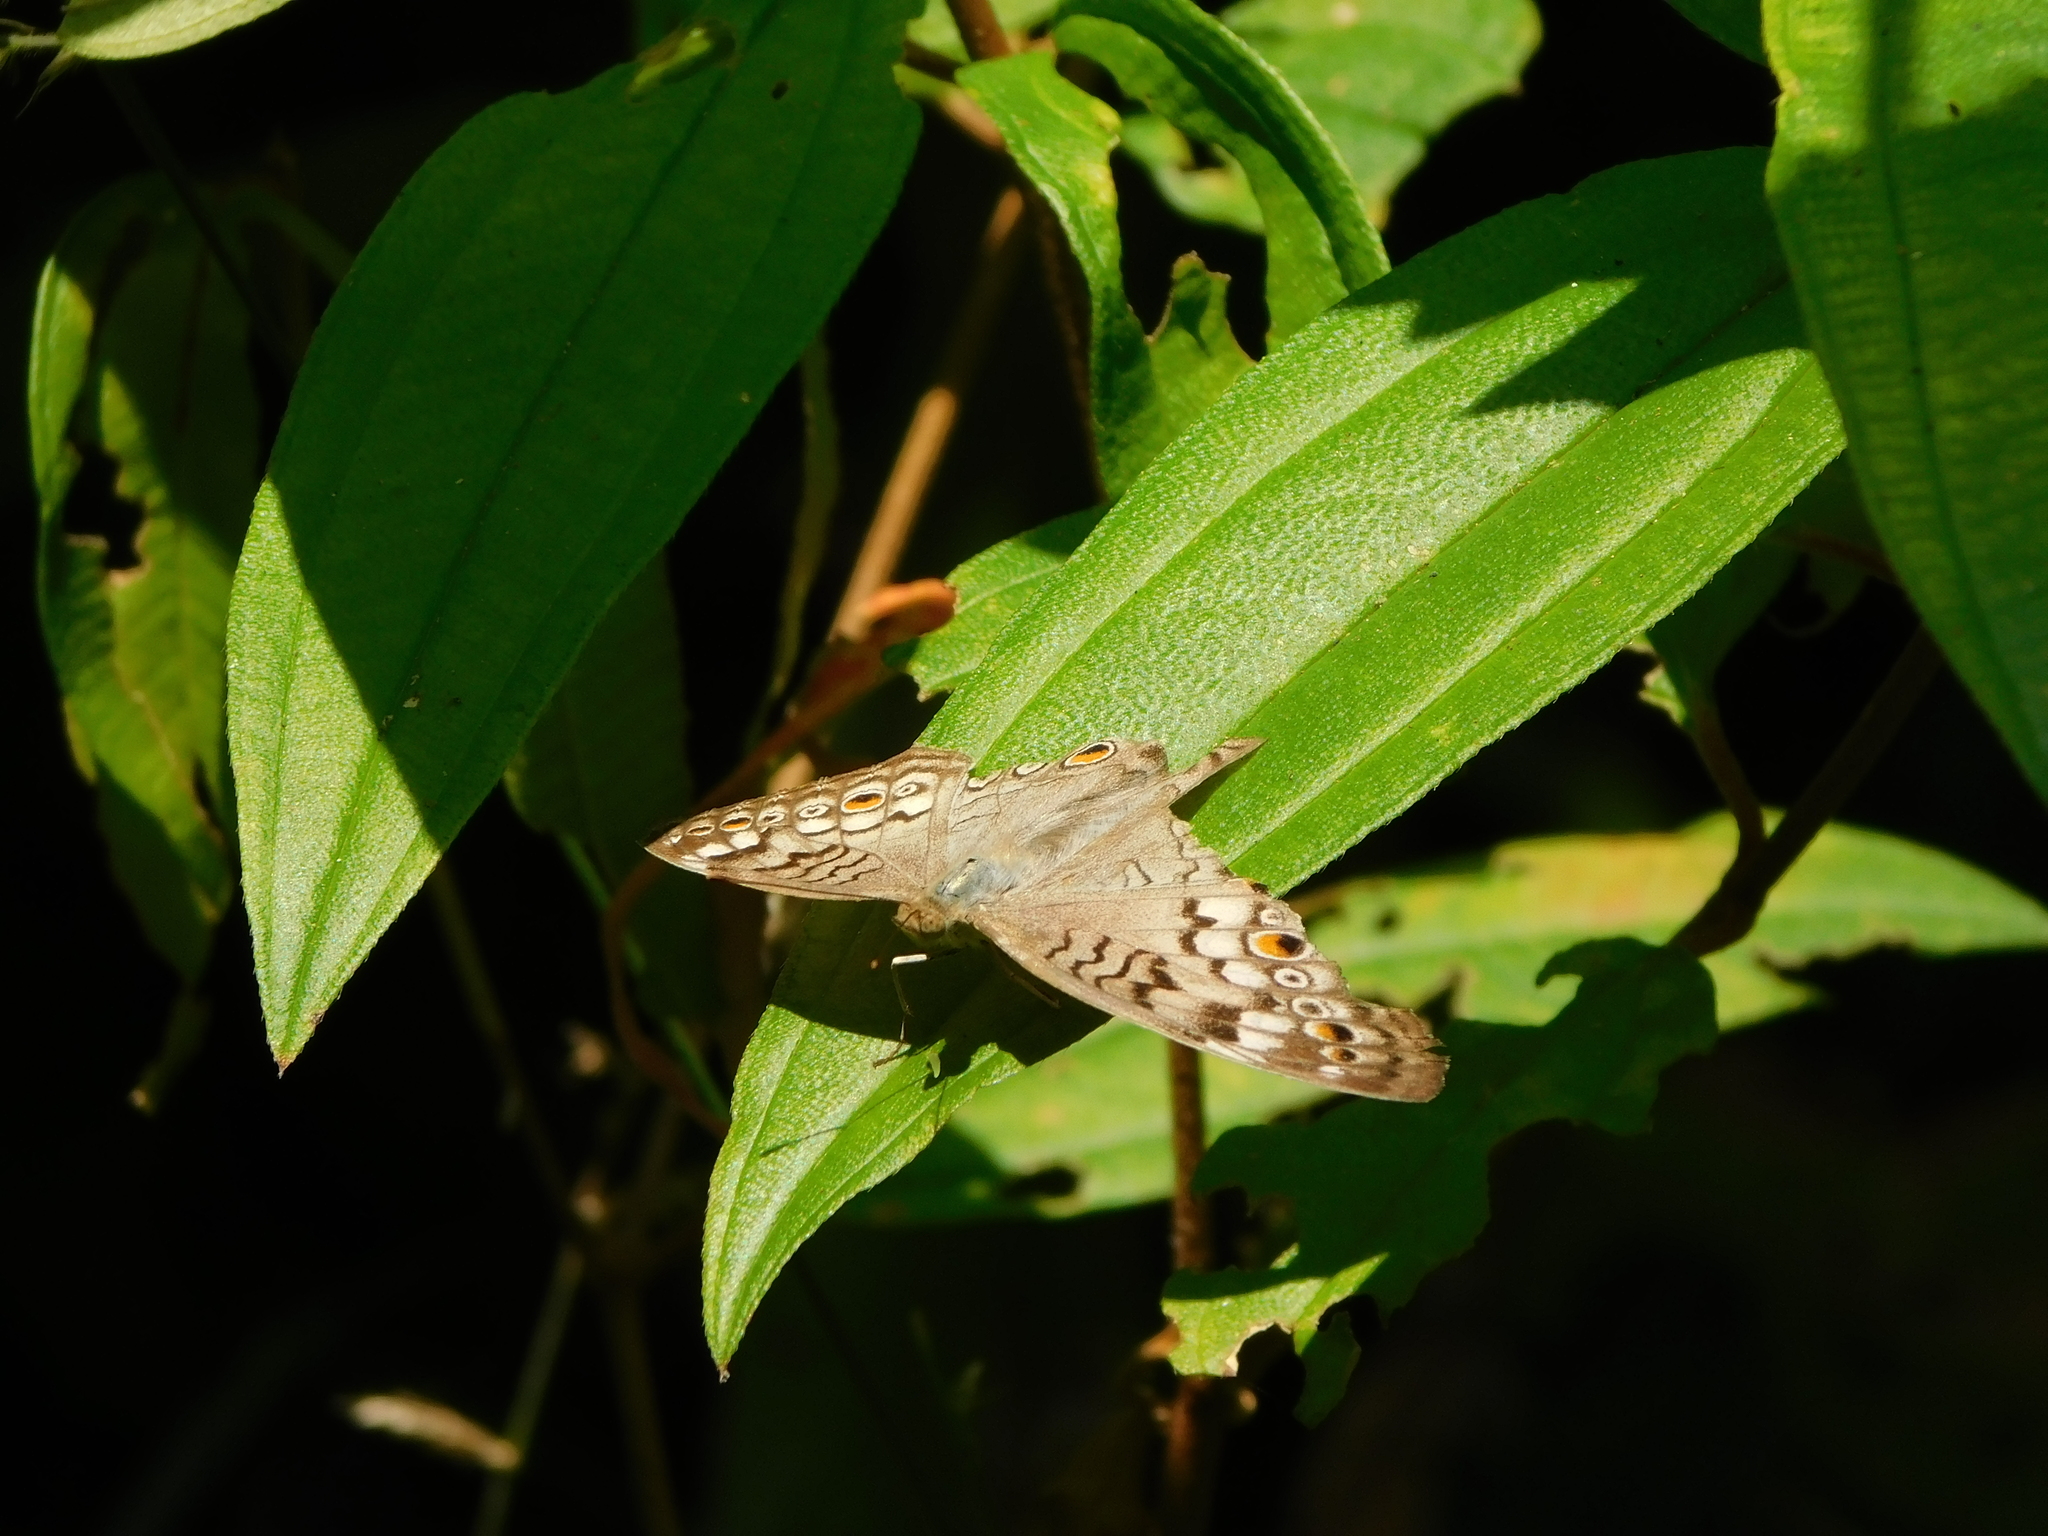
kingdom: Animalia
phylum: Arthropoda
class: Insecta
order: Lepidoptera
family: Nymphalidae
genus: Junonia
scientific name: Junonia atlites
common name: Grey pansy
